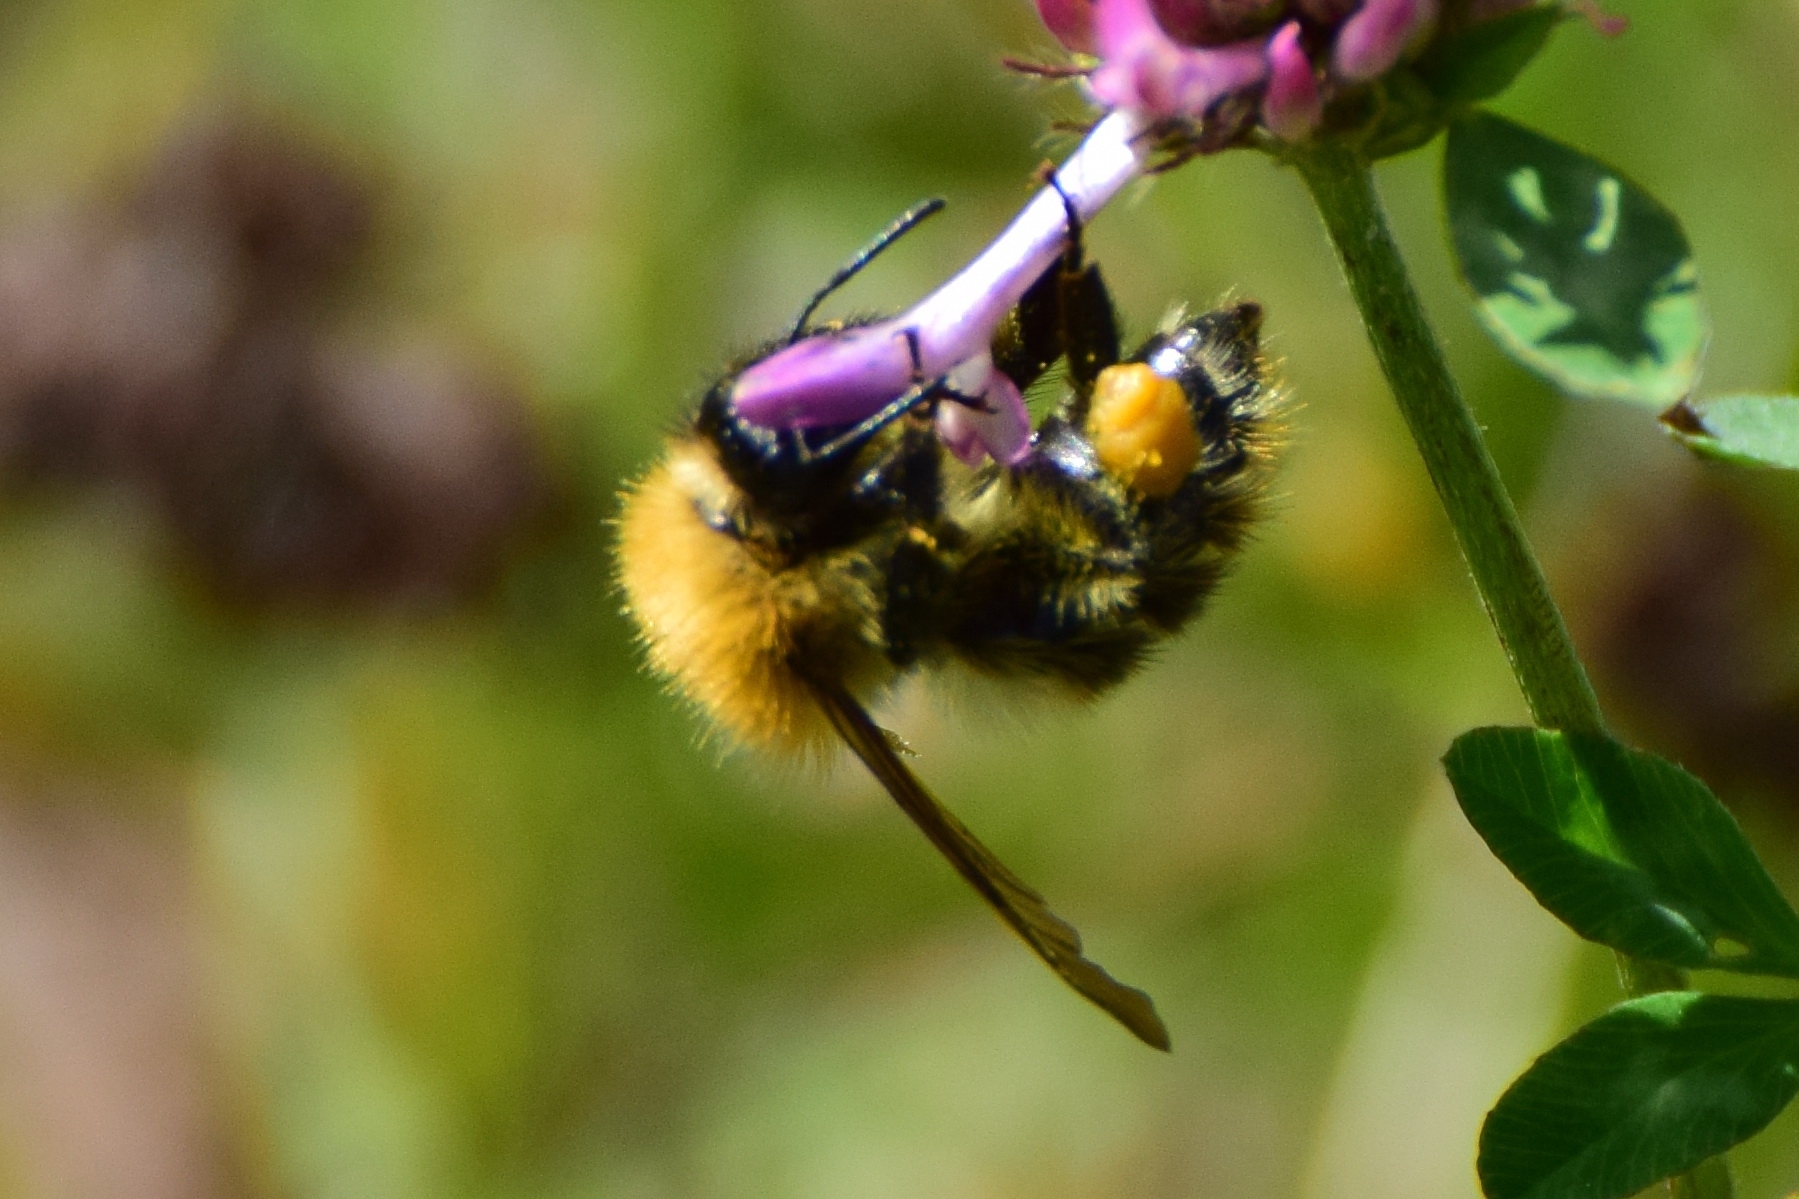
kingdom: Animalia
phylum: Arthropoda
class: Insecta
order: Hymenoptera
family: Apidae
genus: Bombus
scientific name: Bombus pascuorum
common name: Common carder bee
